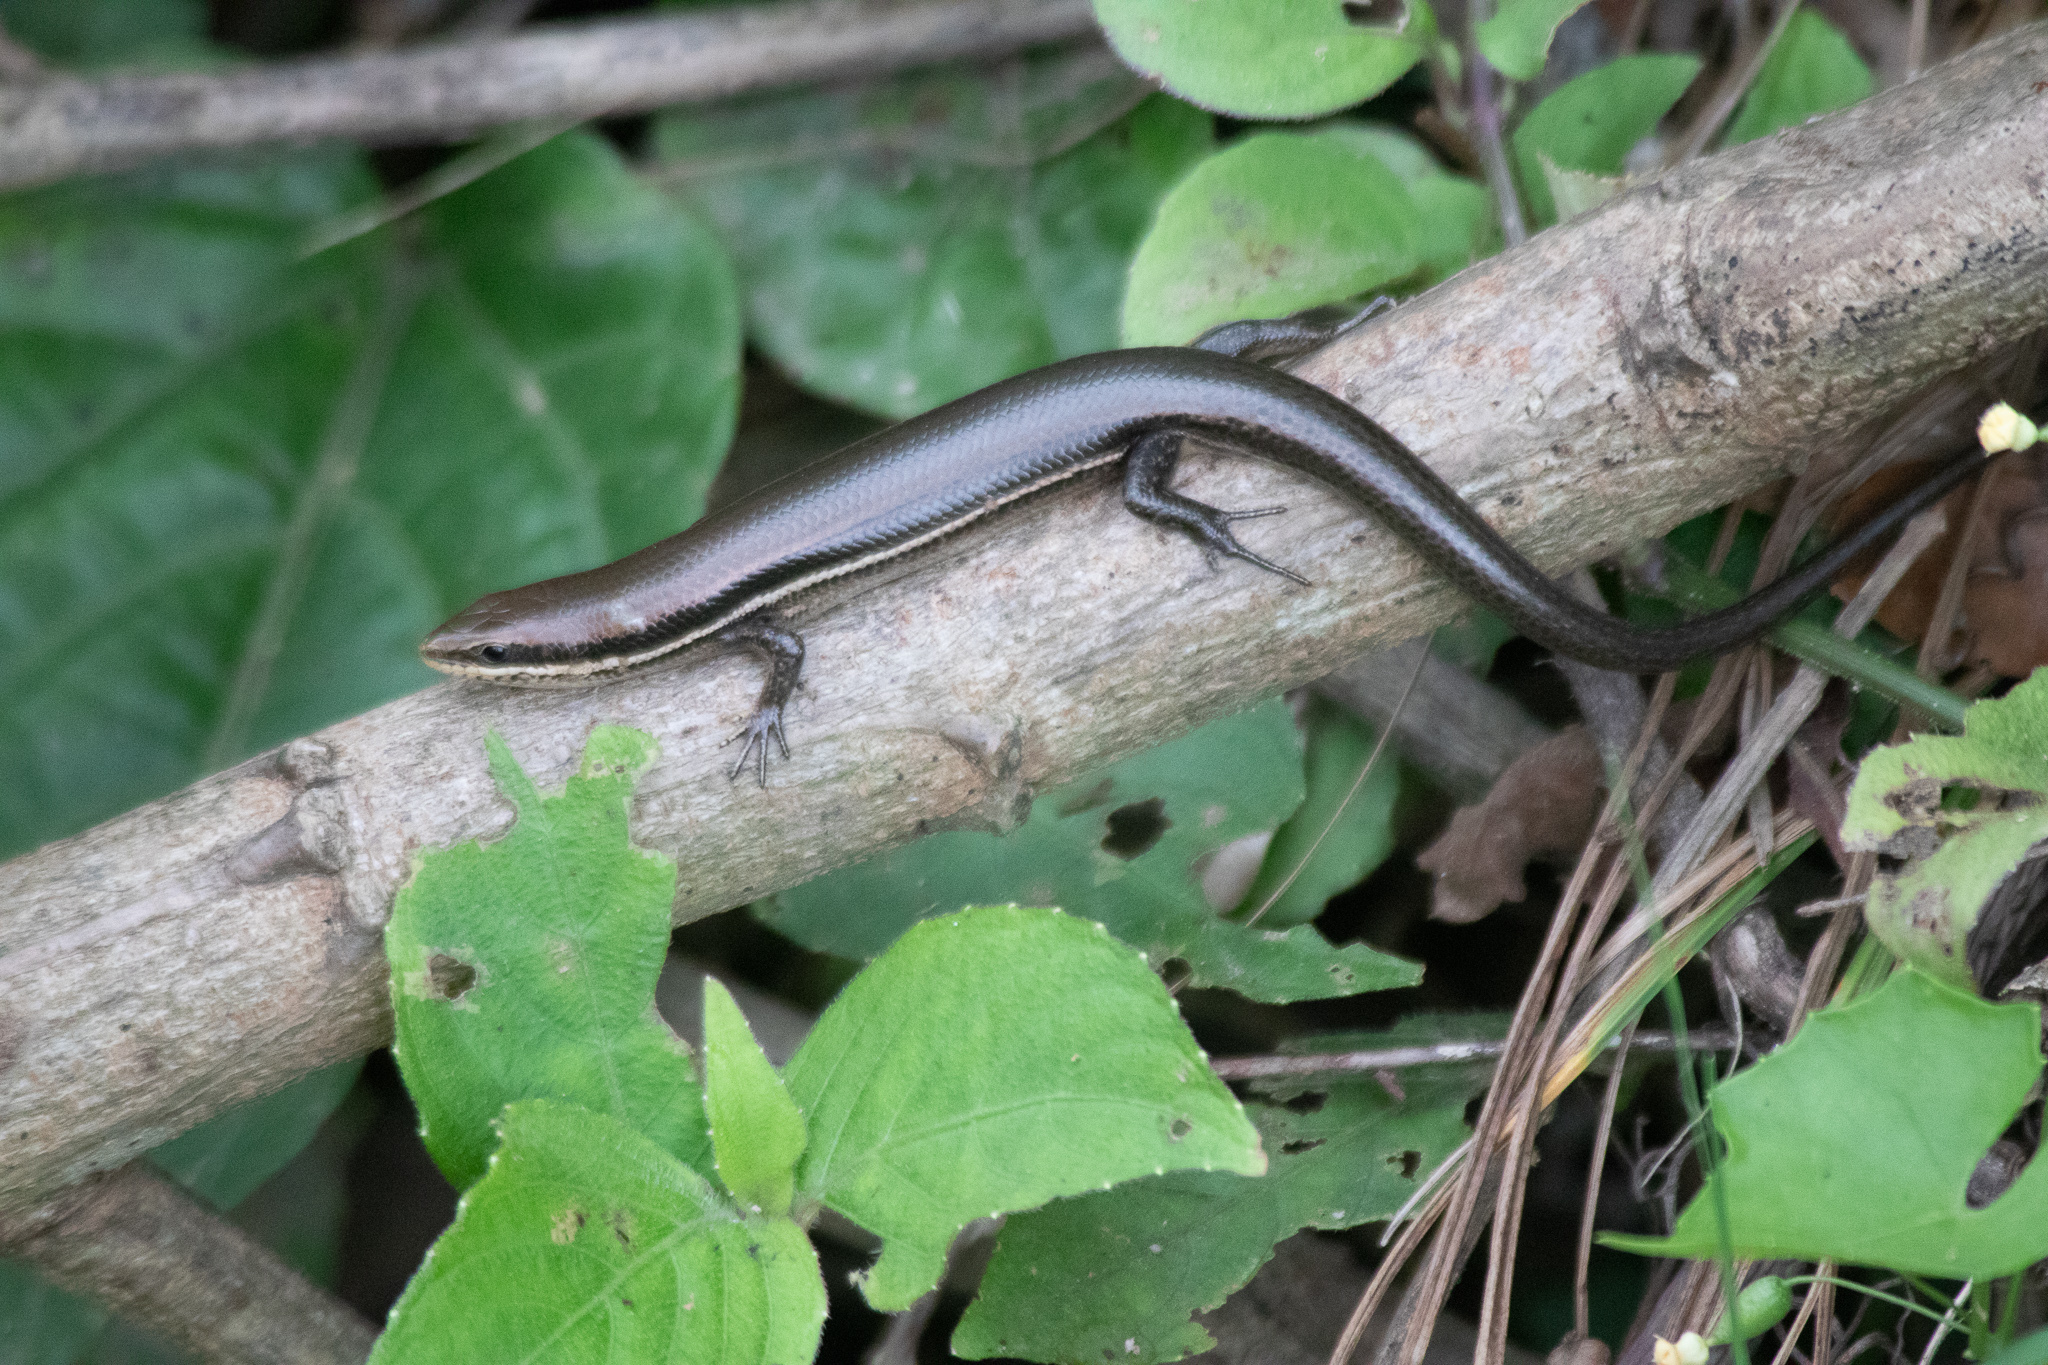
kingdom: Animalia
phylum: Chordata
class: Squamata
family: Scincidae
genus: Marisora
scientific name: Marisora brachypoda
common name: Western middle america skink
